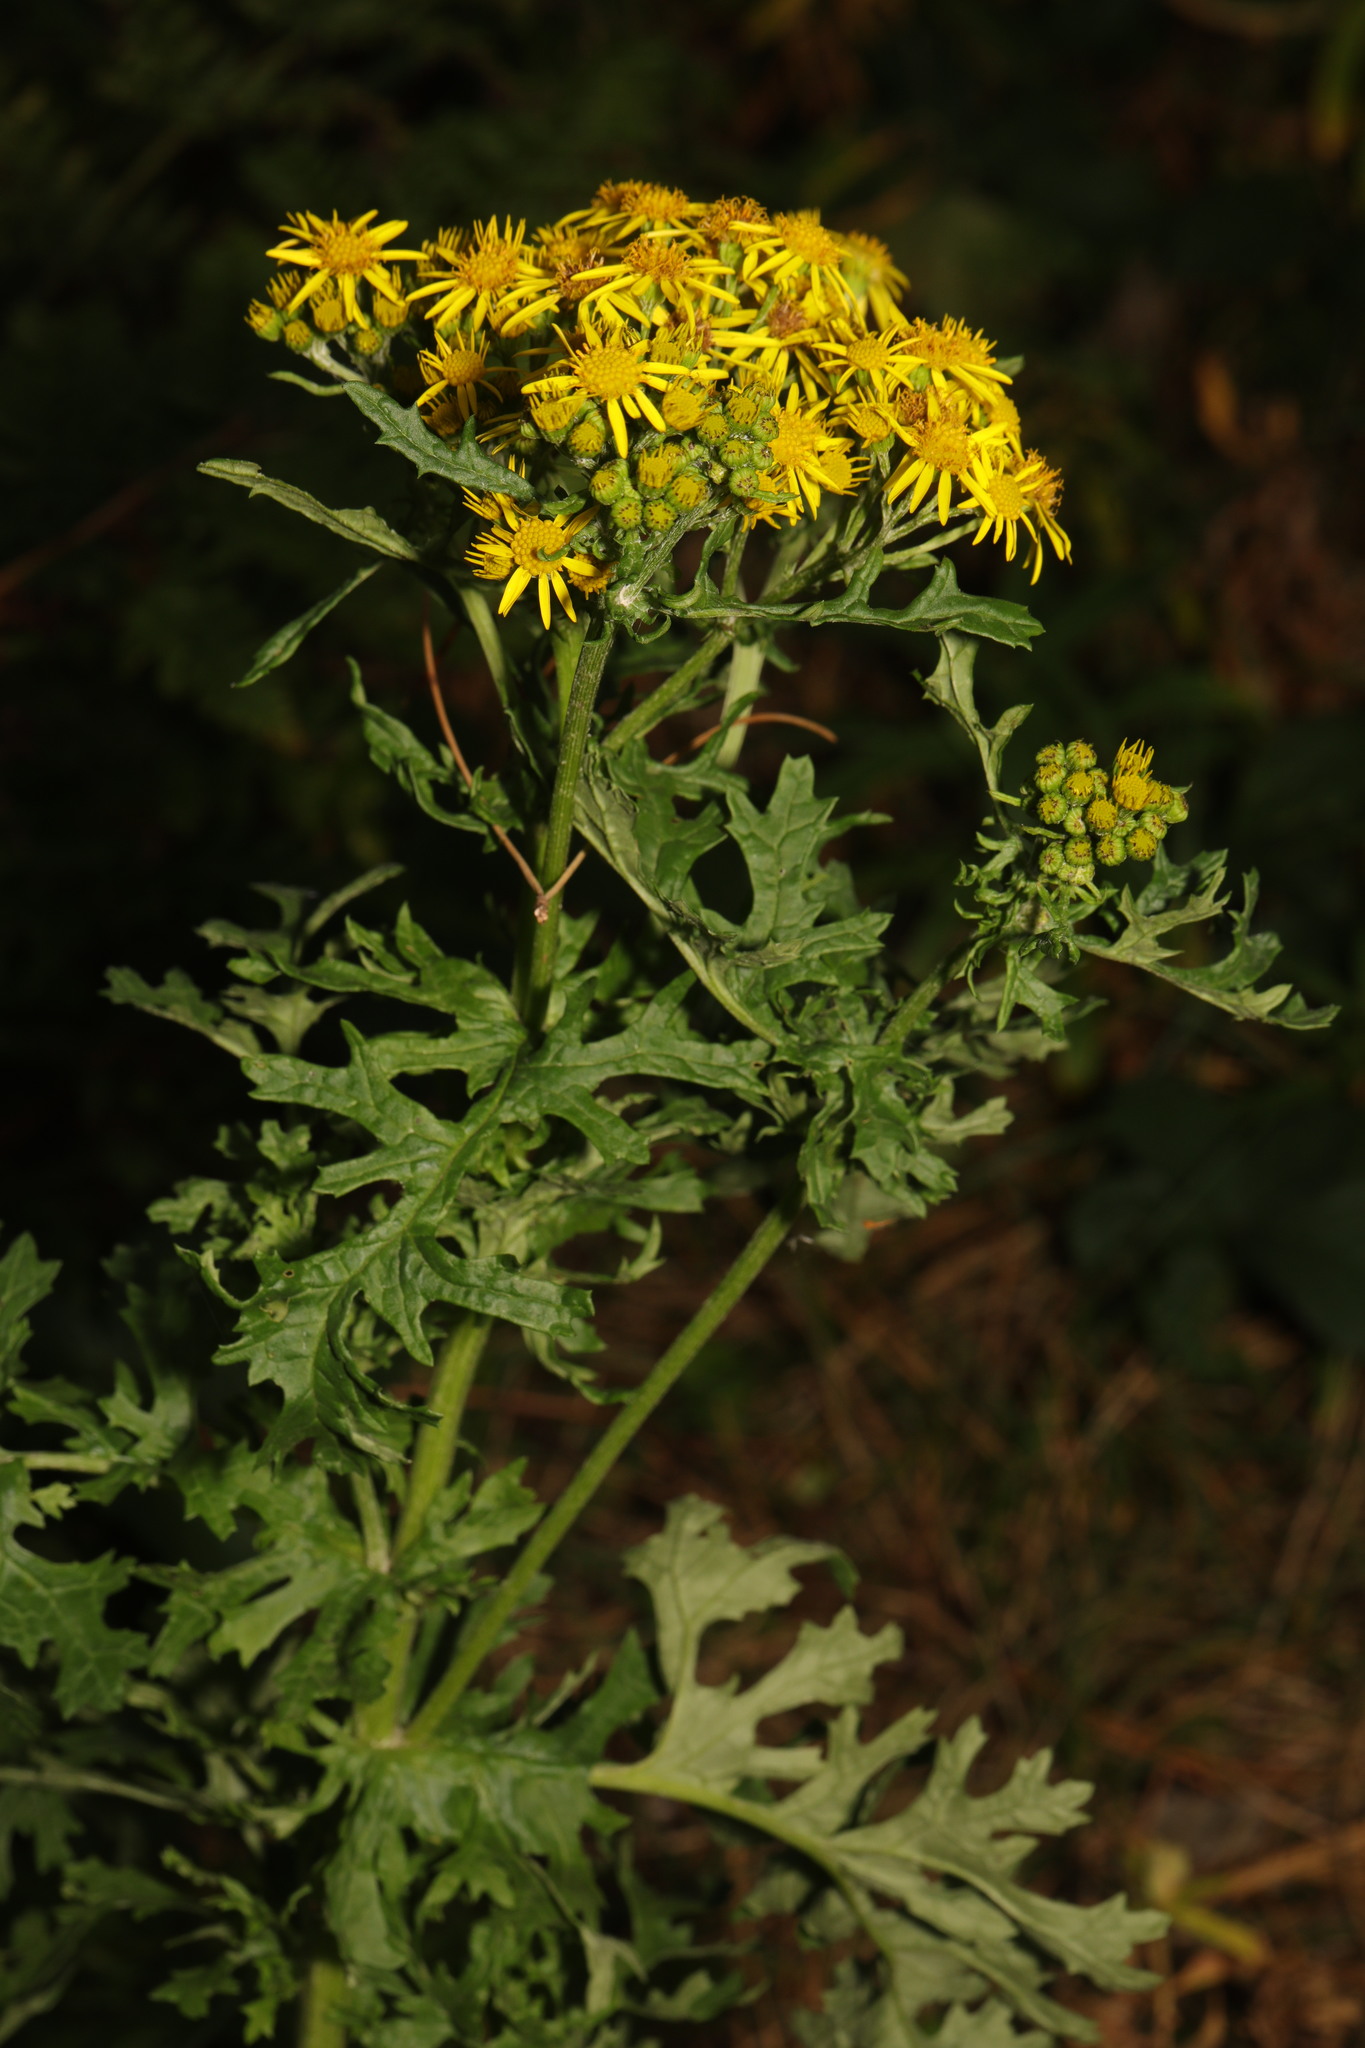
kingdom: Plantae
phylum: Tracheophyta
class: Magnoliopsida
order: Asterales
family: Asteraceae
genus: Jacobaea
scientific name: Jacobaea vulgaris
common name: Stinking willie
